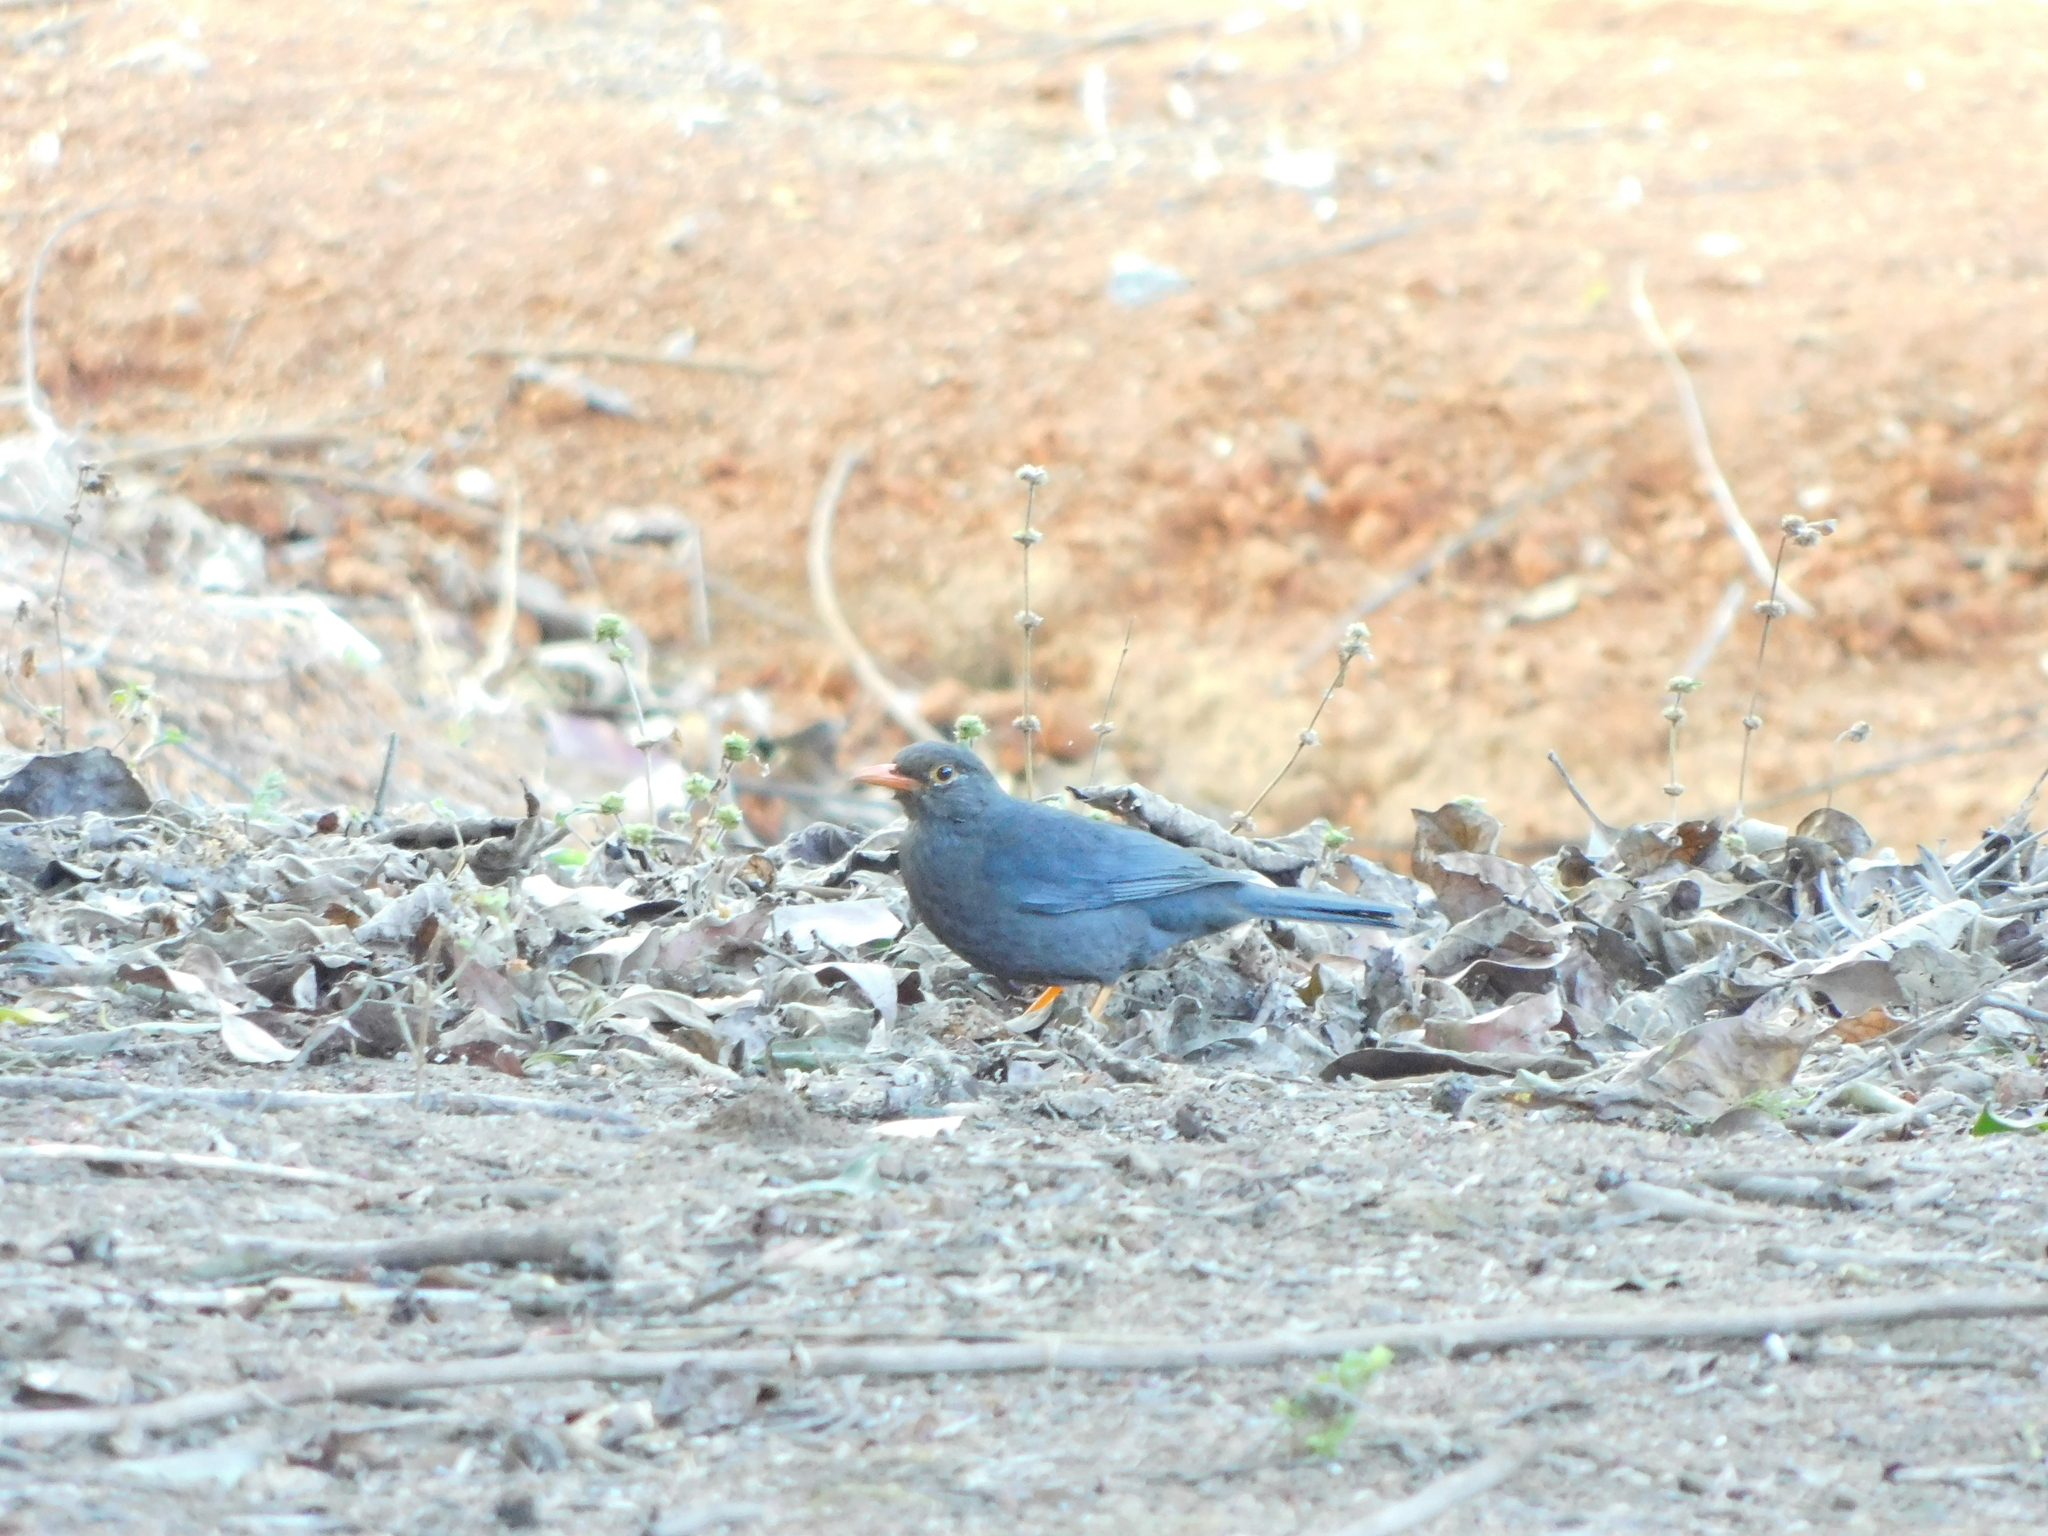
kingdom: Animalia
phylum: Chordata
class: Aves
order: Passeriformes
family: Turdidae
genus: Turdus
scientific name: Turdus simillimus
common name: Indian blackbird
